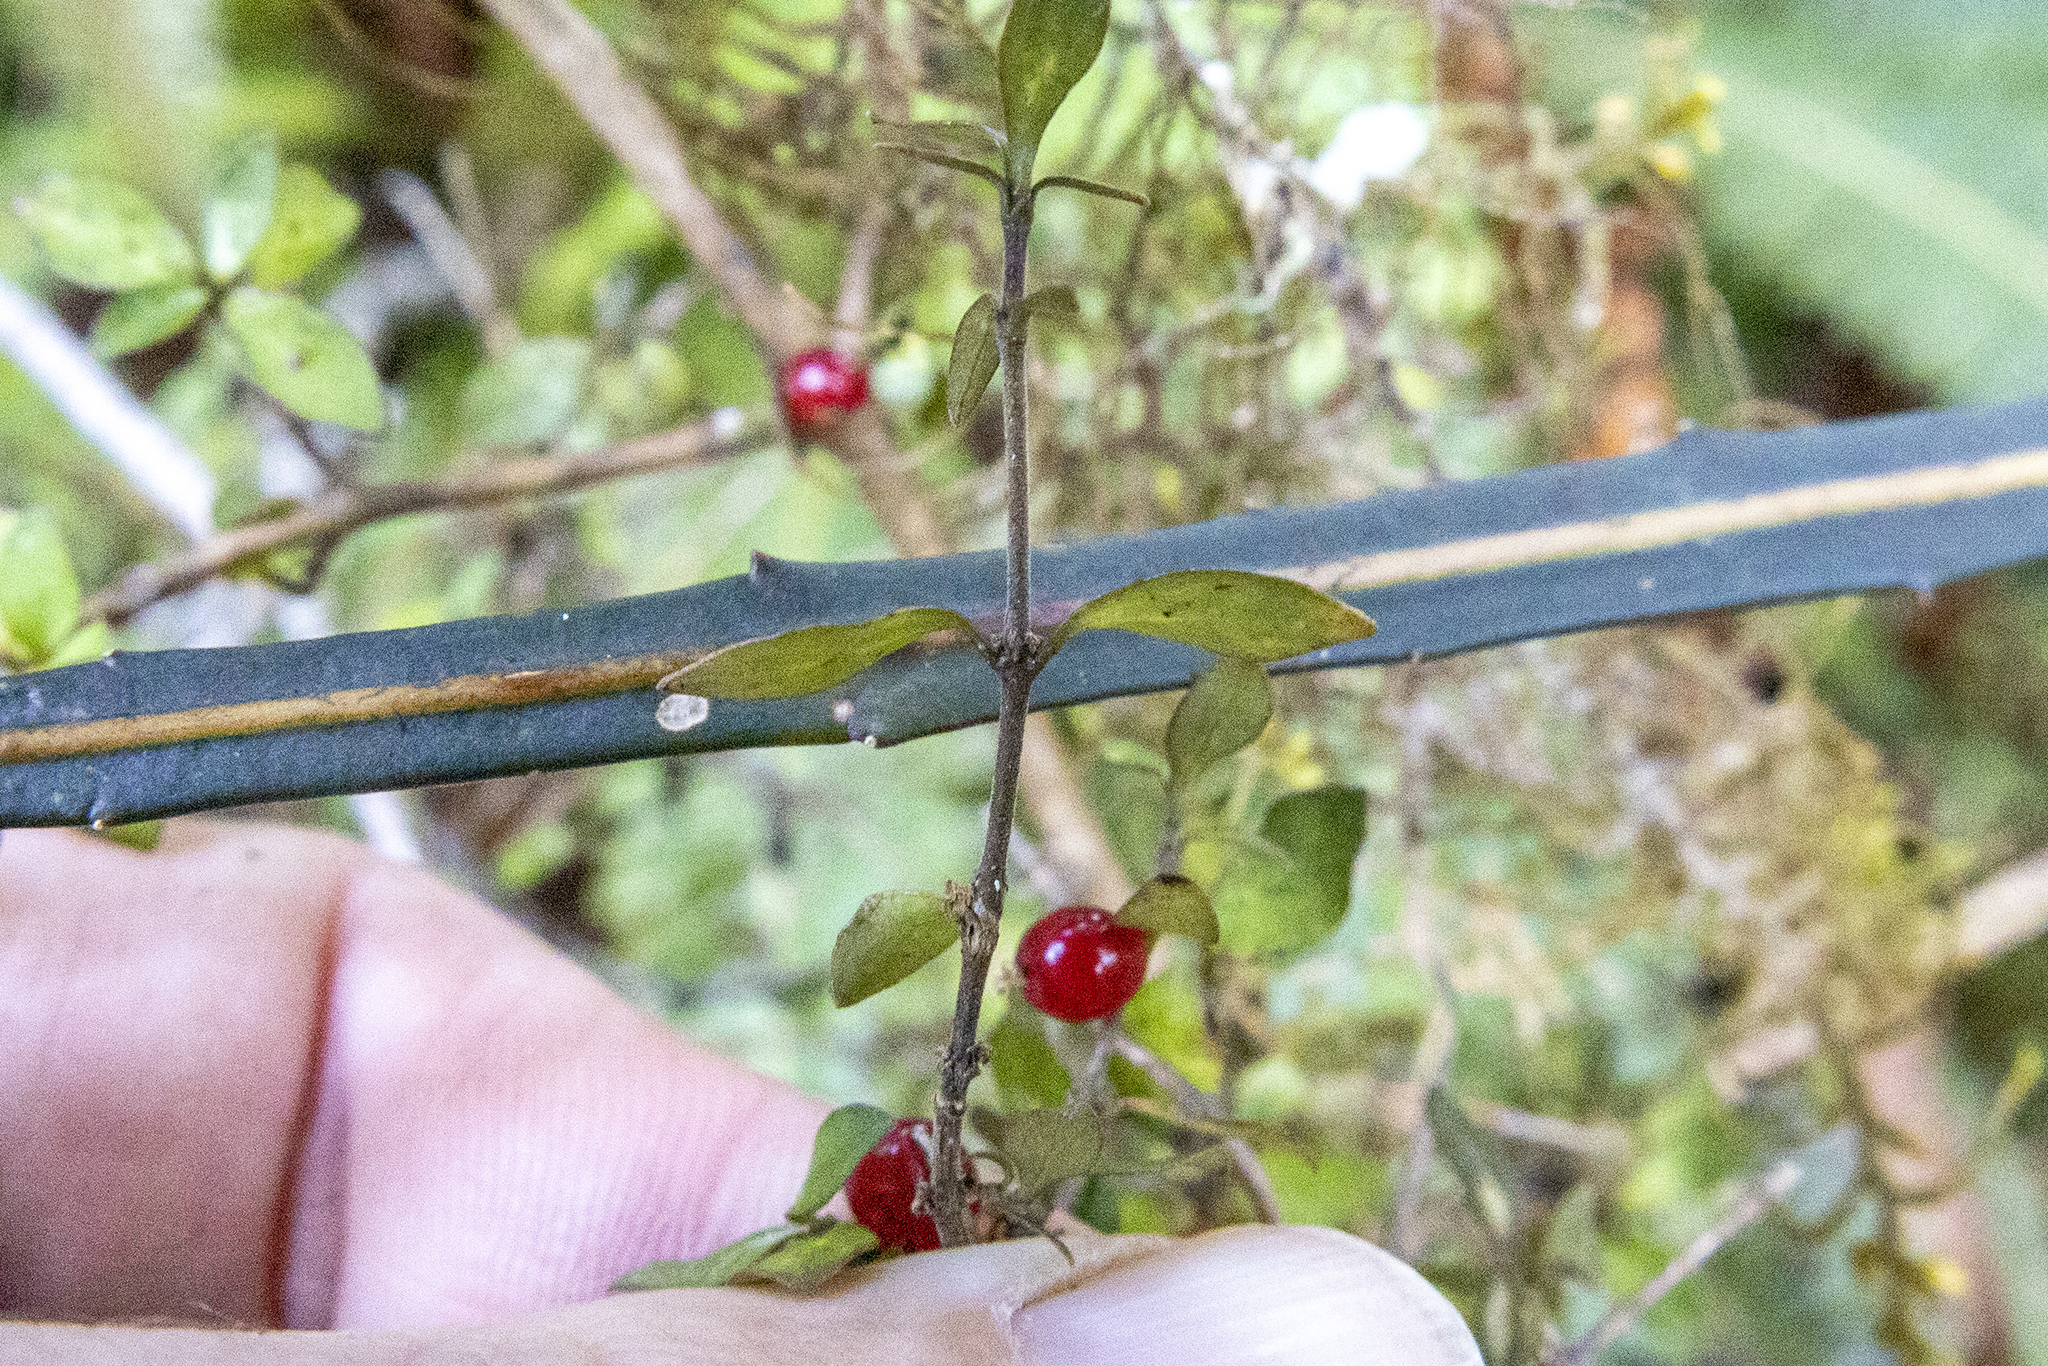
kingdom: Plantae
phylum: Tracheophyta
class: Magnoliopsida
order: Gentianales
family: Rubiaceae
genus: Coprosma
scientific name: Coprosma rhamnoides
